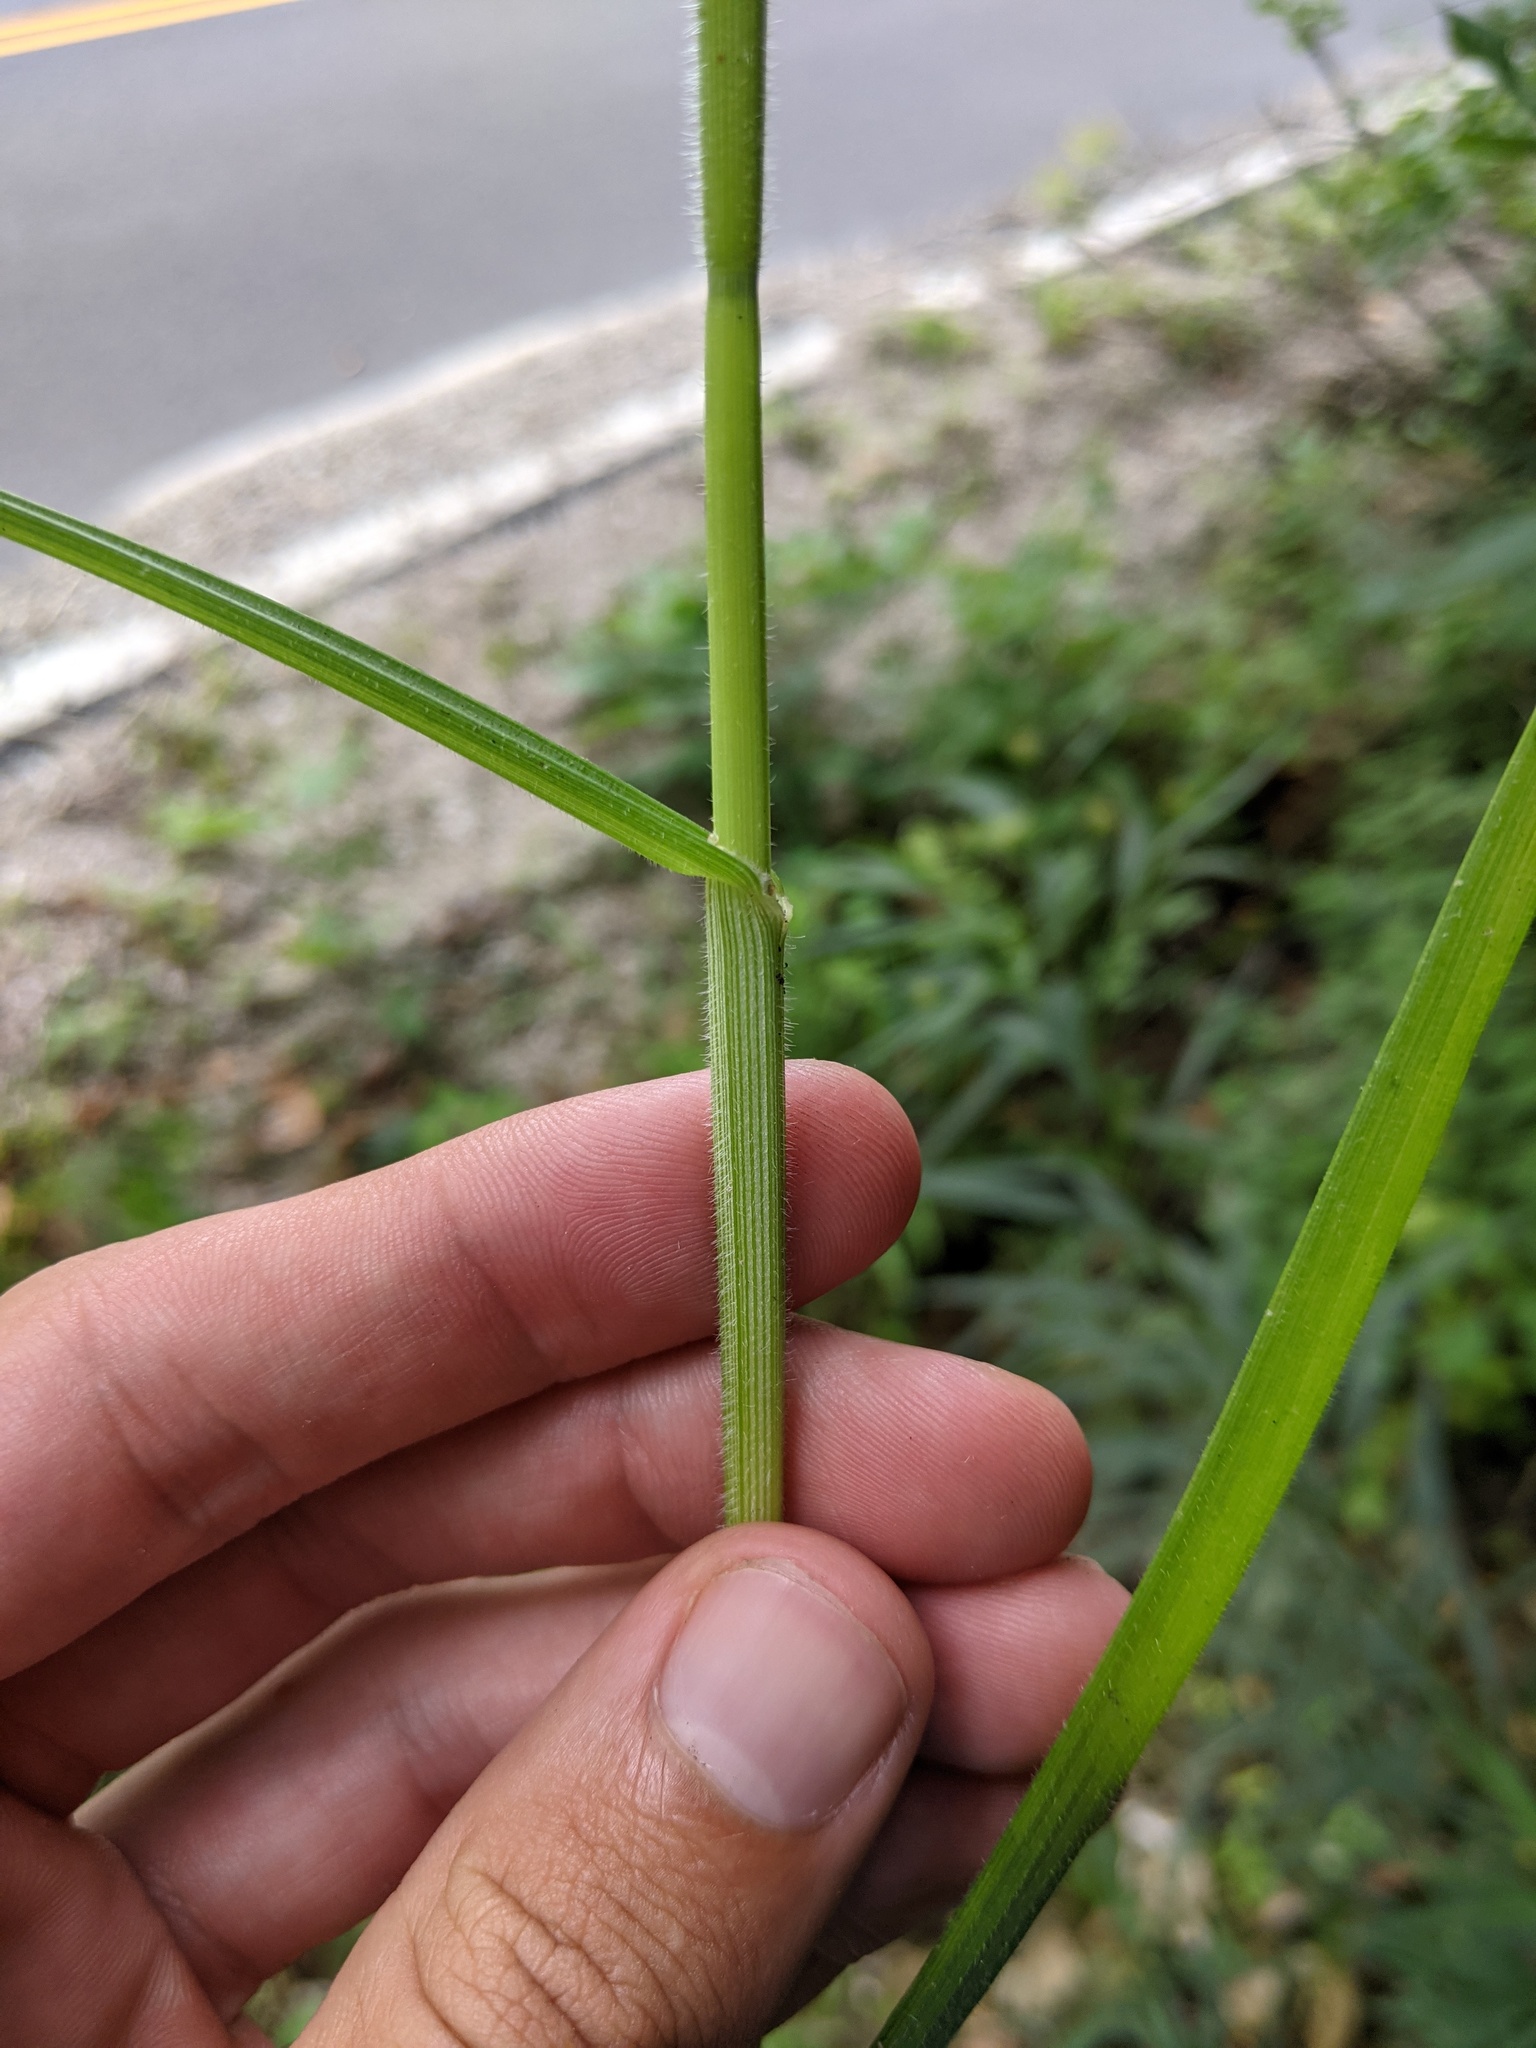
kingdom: Plantae
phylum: Tracheophyta
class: Liliopsida
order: Poales
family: Cyperaceae
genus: Fuirena
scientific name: Fuirena simplex
